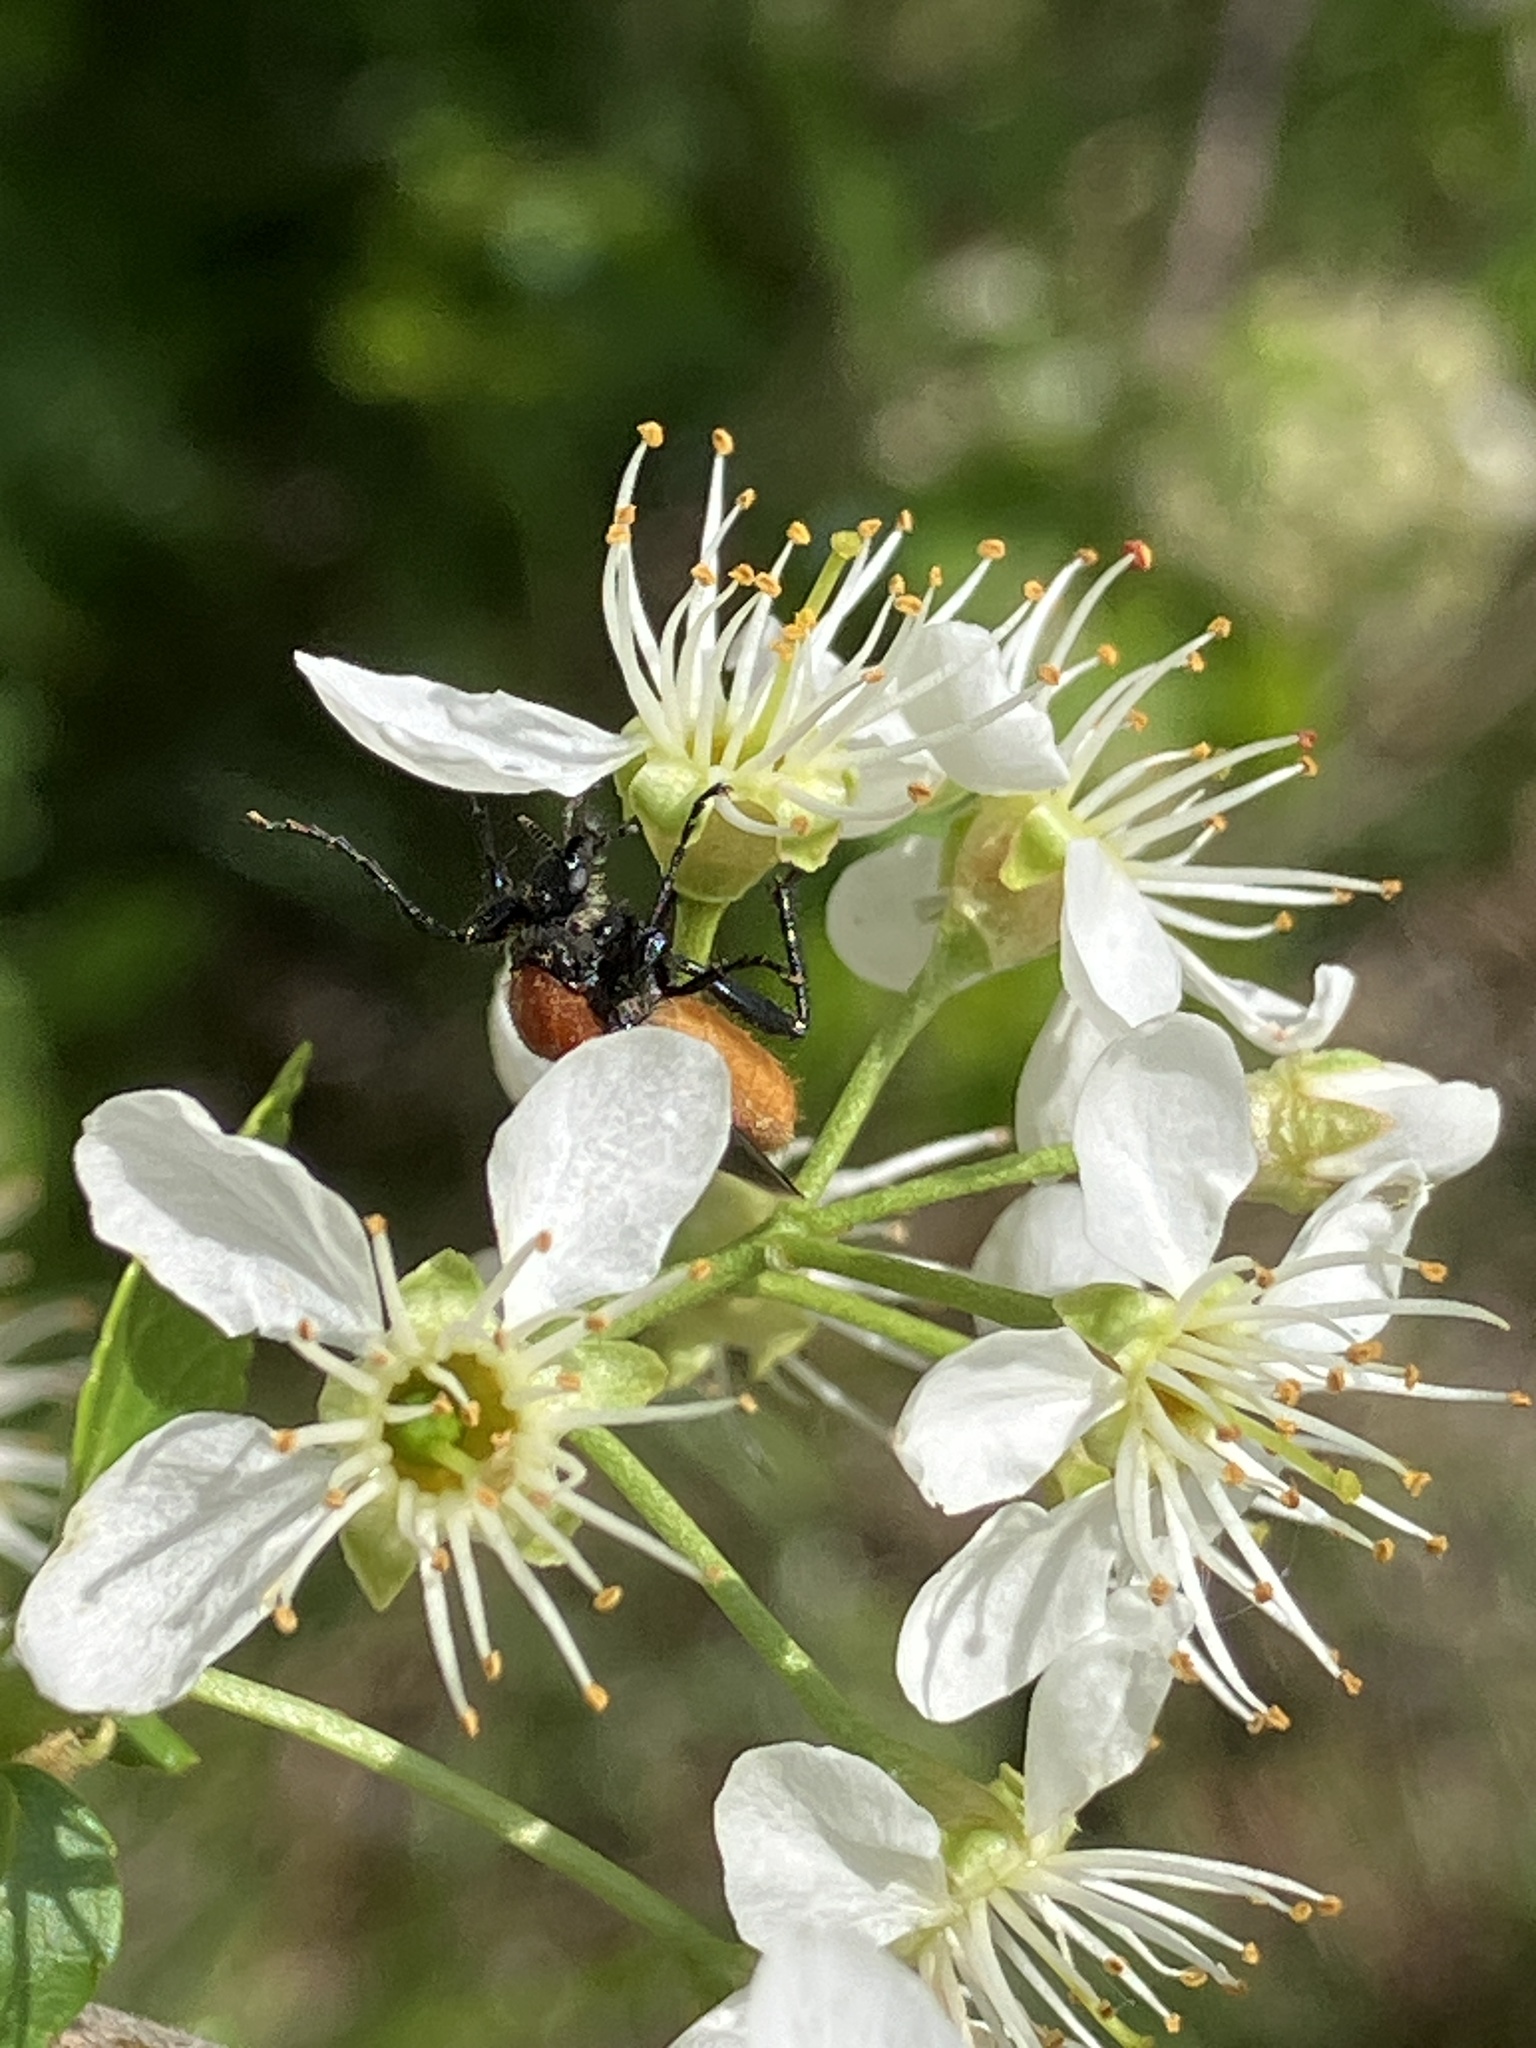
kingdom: Animalia
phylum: Arthropoda
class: Insecta
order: Diptera
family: Bibionidae
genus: Bibio
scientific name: Bibio hortulanus
